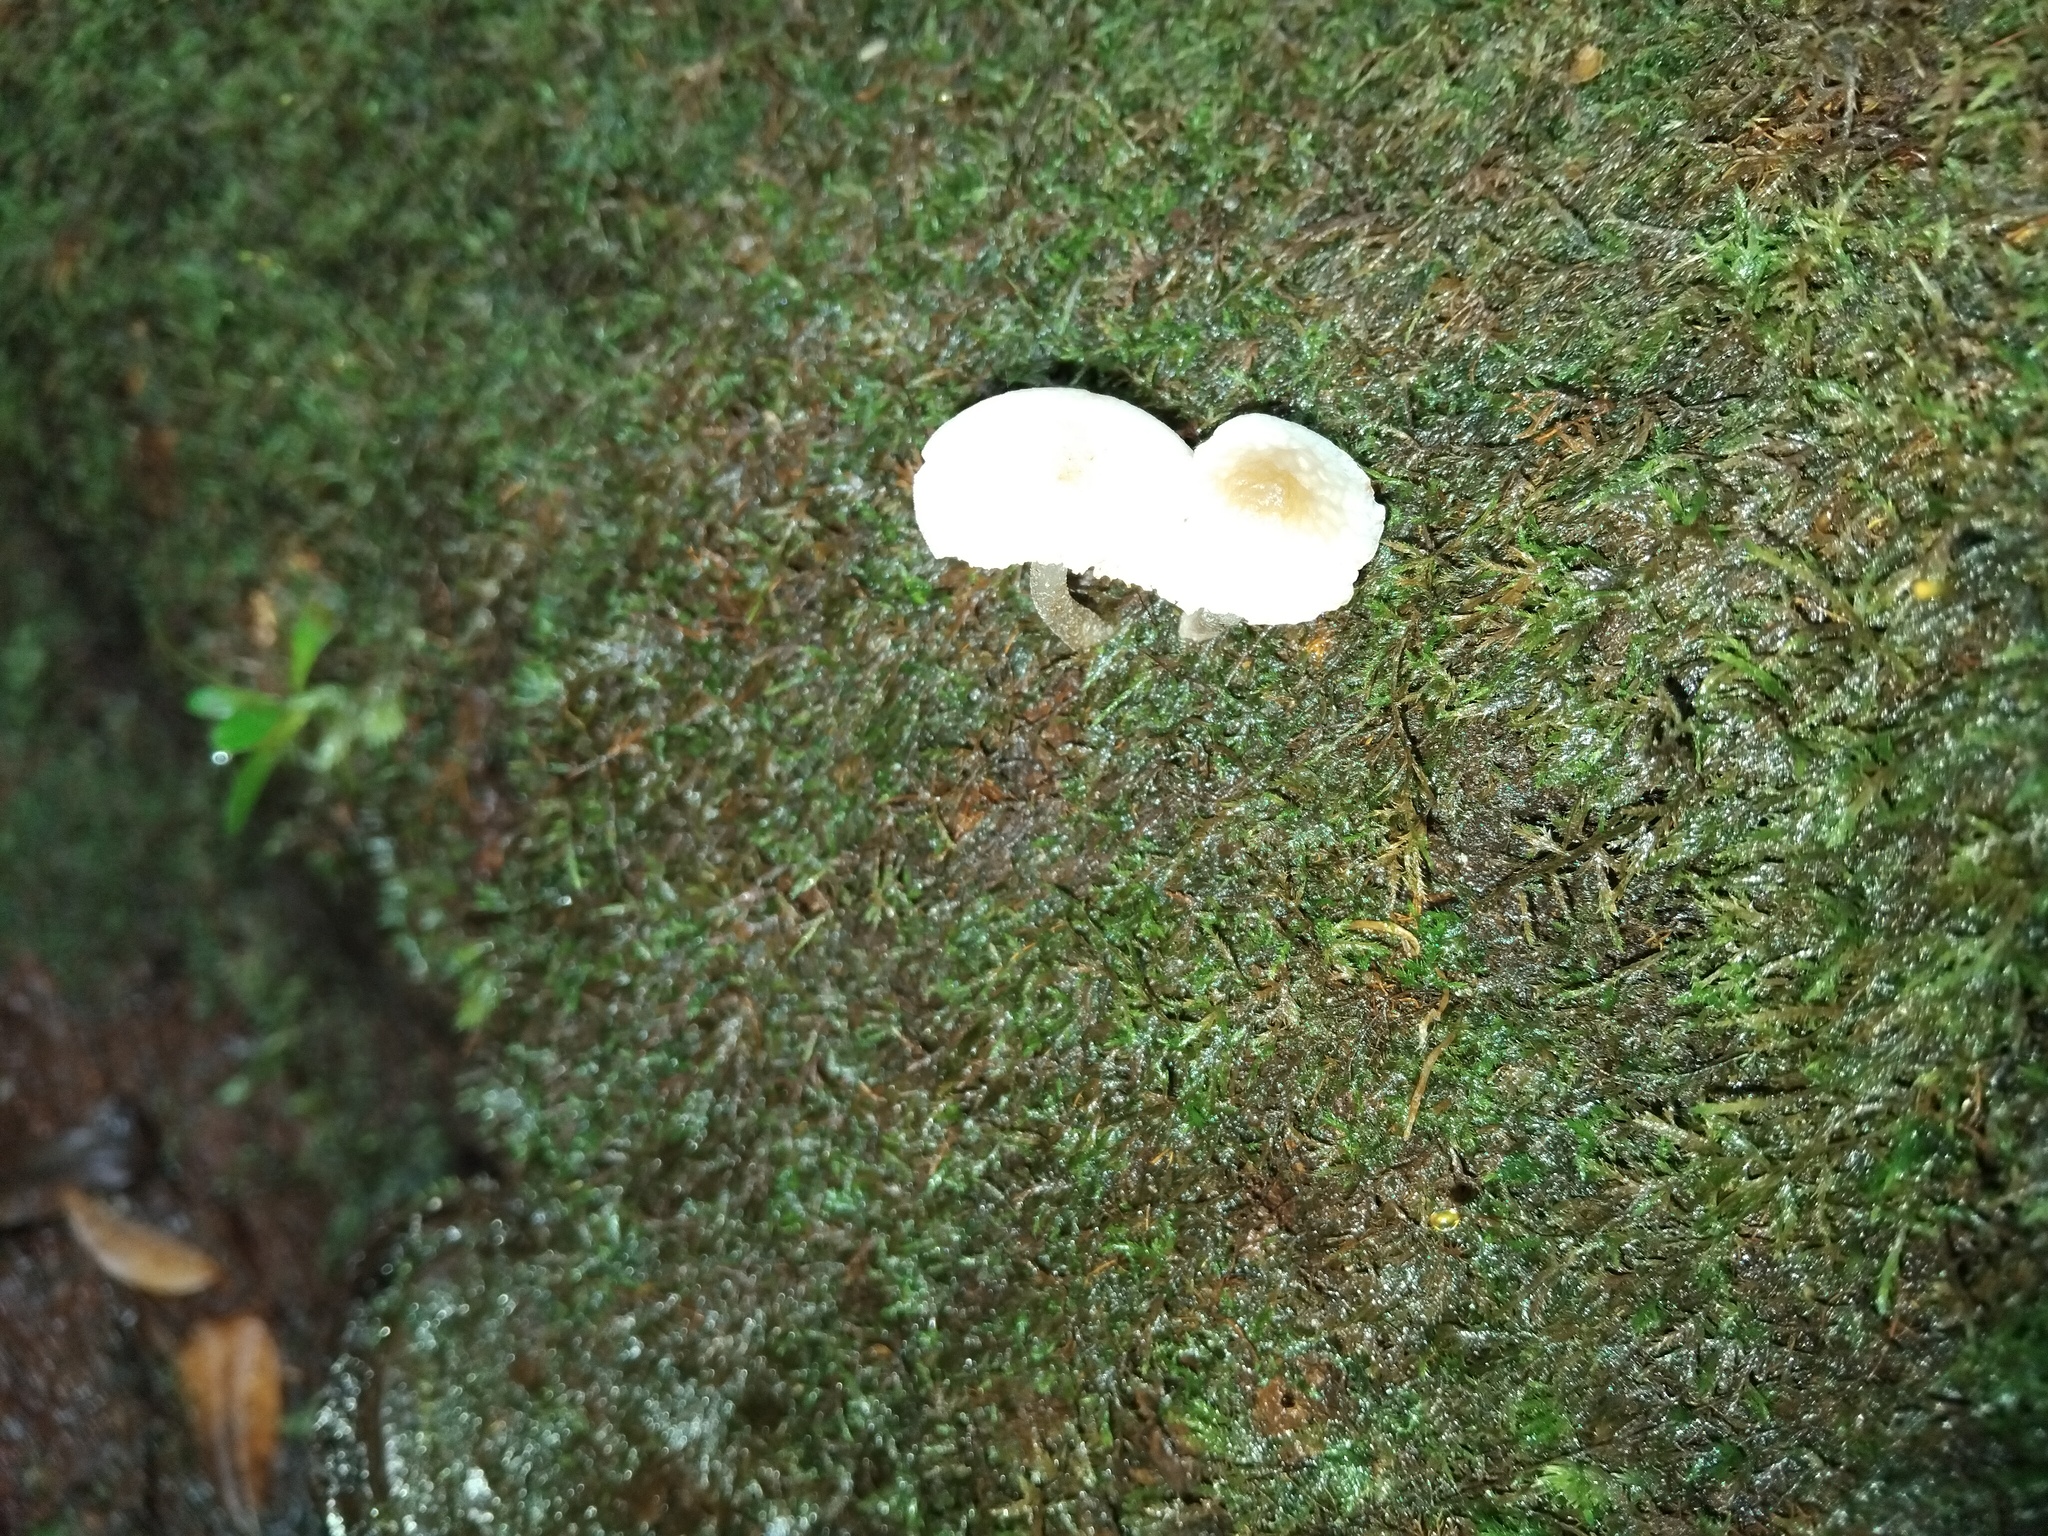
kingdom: Fungi
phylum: Basidiomycota
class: Agaricomycetes
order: Agaricales
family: Mycenaceae
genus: Filoboletus
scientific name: Filoboletus manipularis
